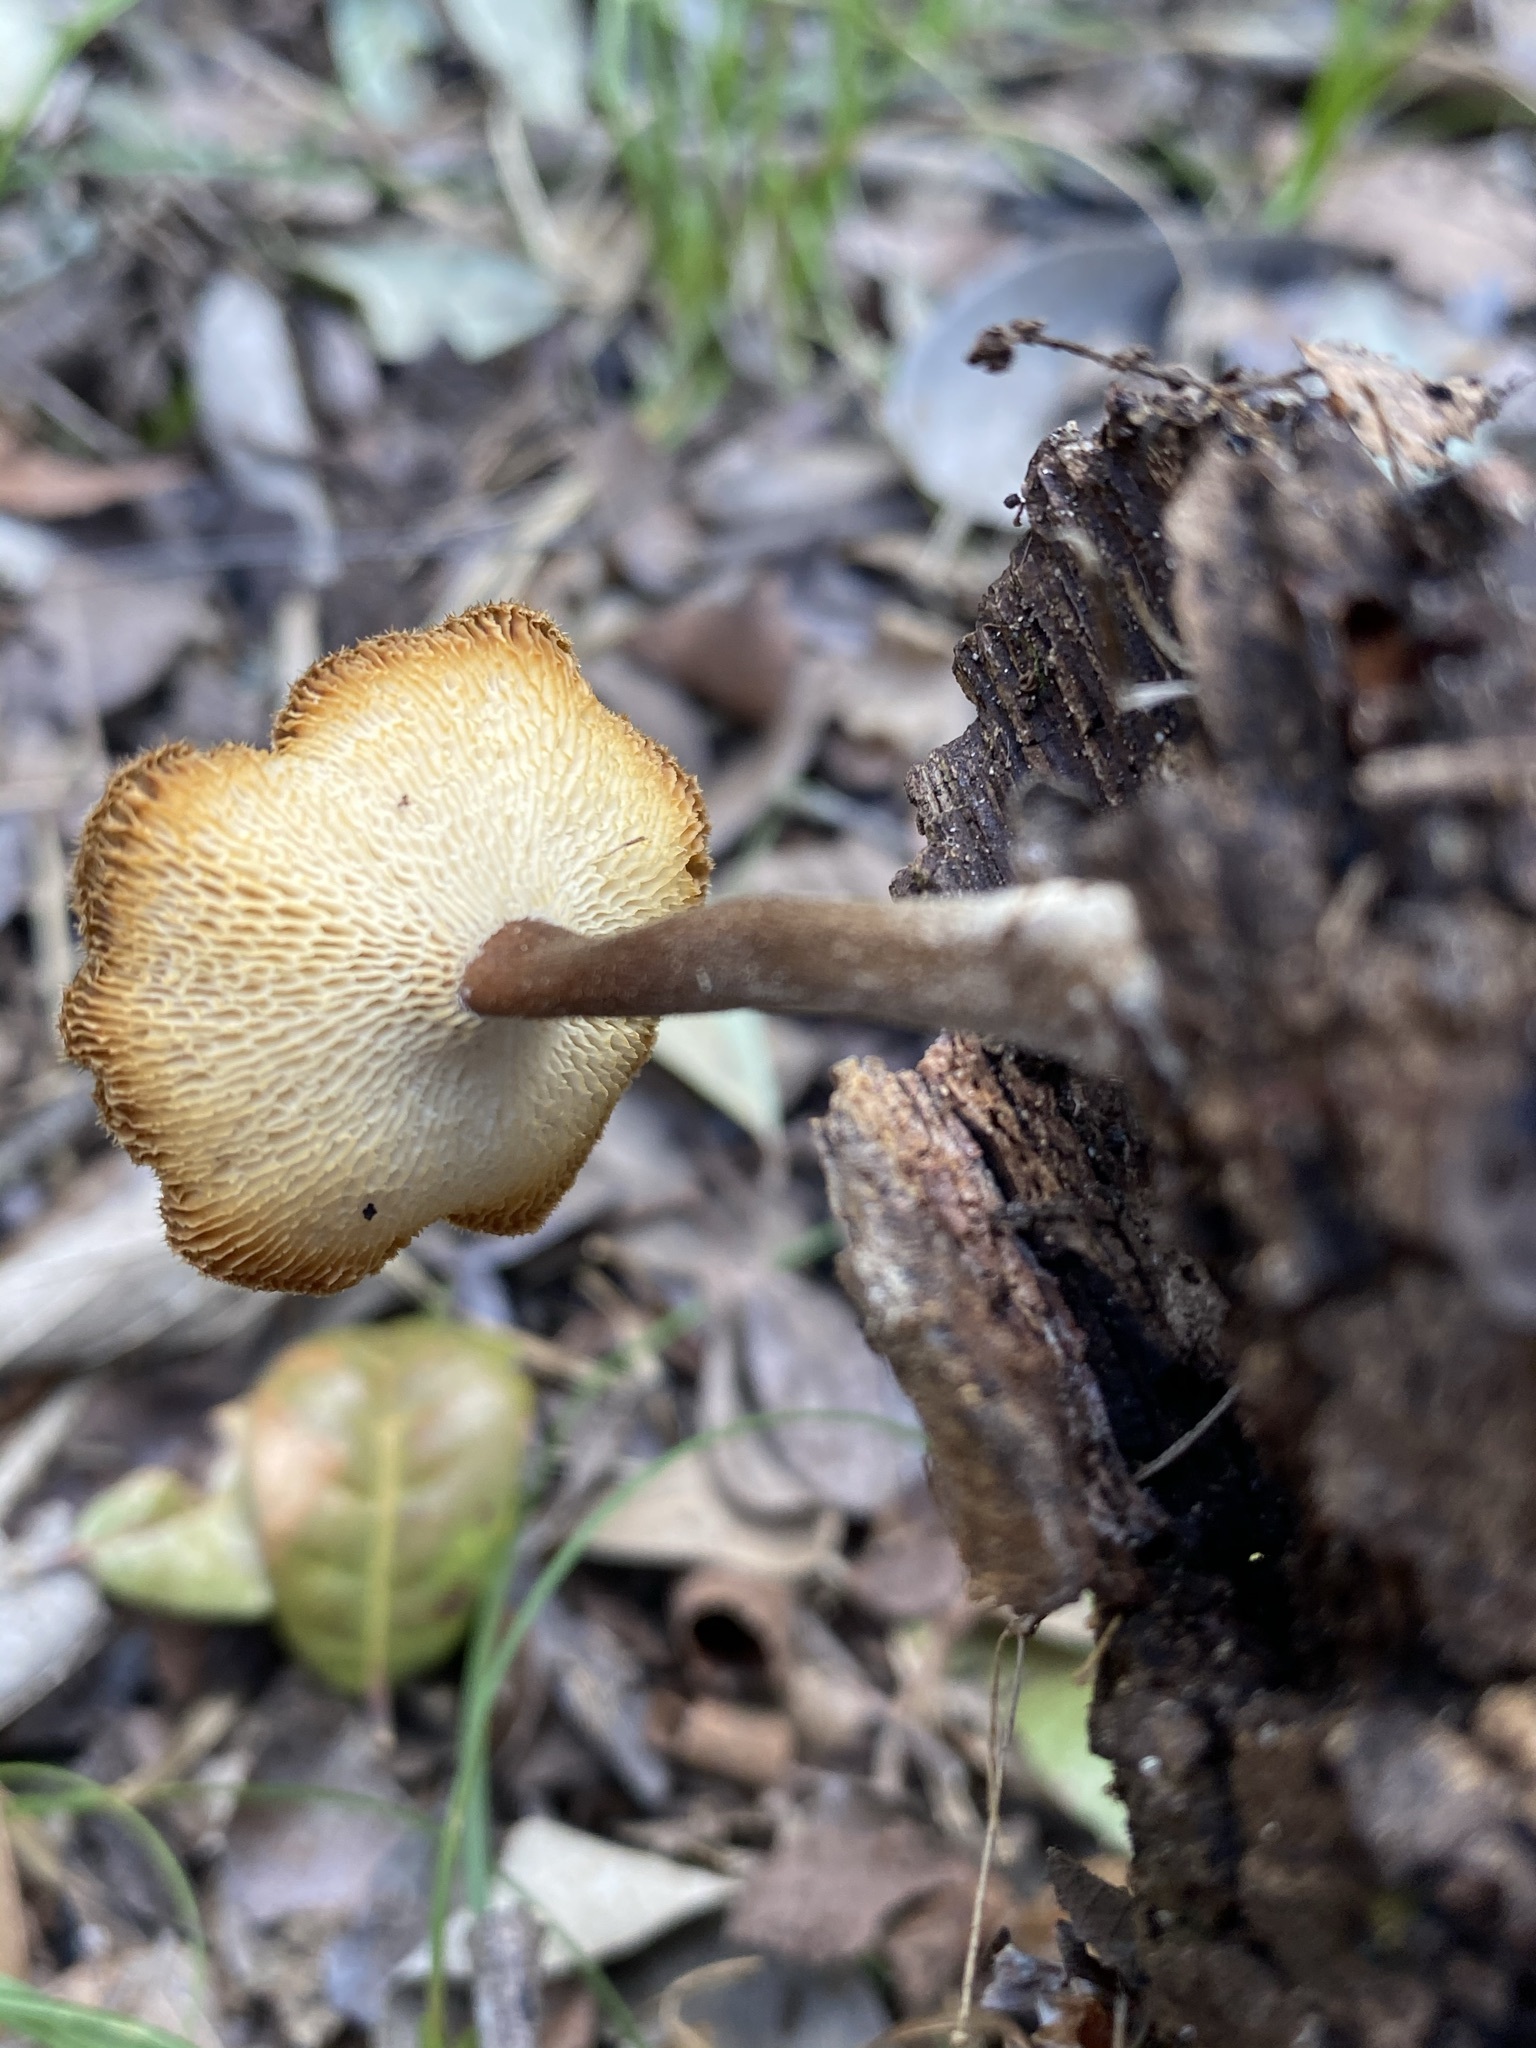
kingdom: Fungi
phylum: Basidiomycota
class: Agaricomycetes
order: Polyporales
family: Polyporaceae
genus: Lentinus
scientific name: Lentinus arcularius
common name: Spring polypore
